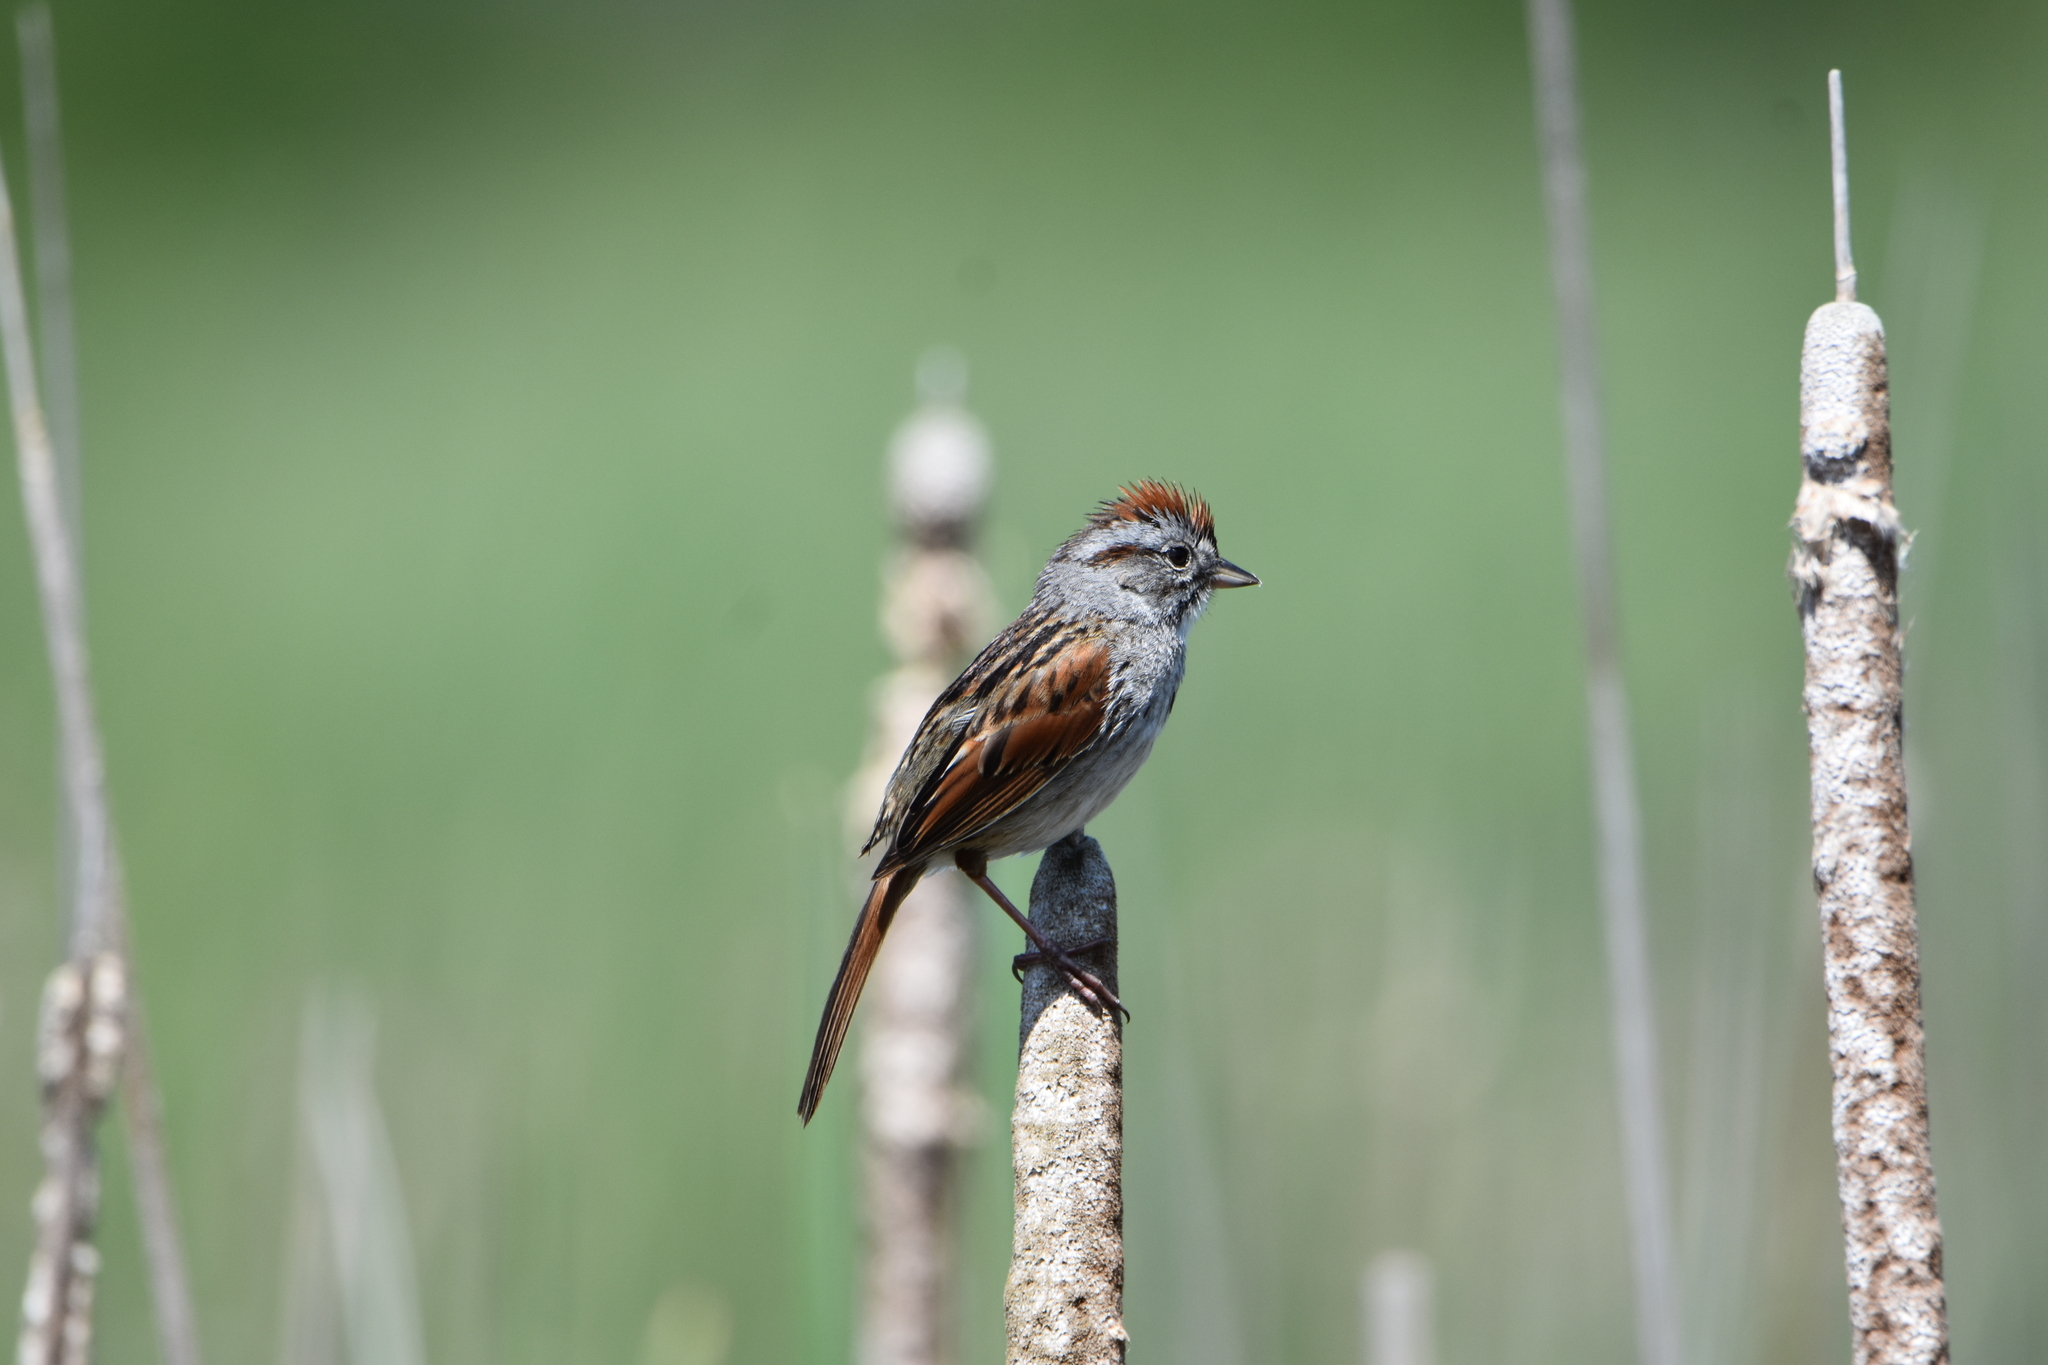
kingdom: Animalia
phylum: Chordata
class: Aves
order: Passeriformes
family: Passerellidae
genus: Melospiza
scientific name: Melospiza georgiana
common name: Swamp sparrow
